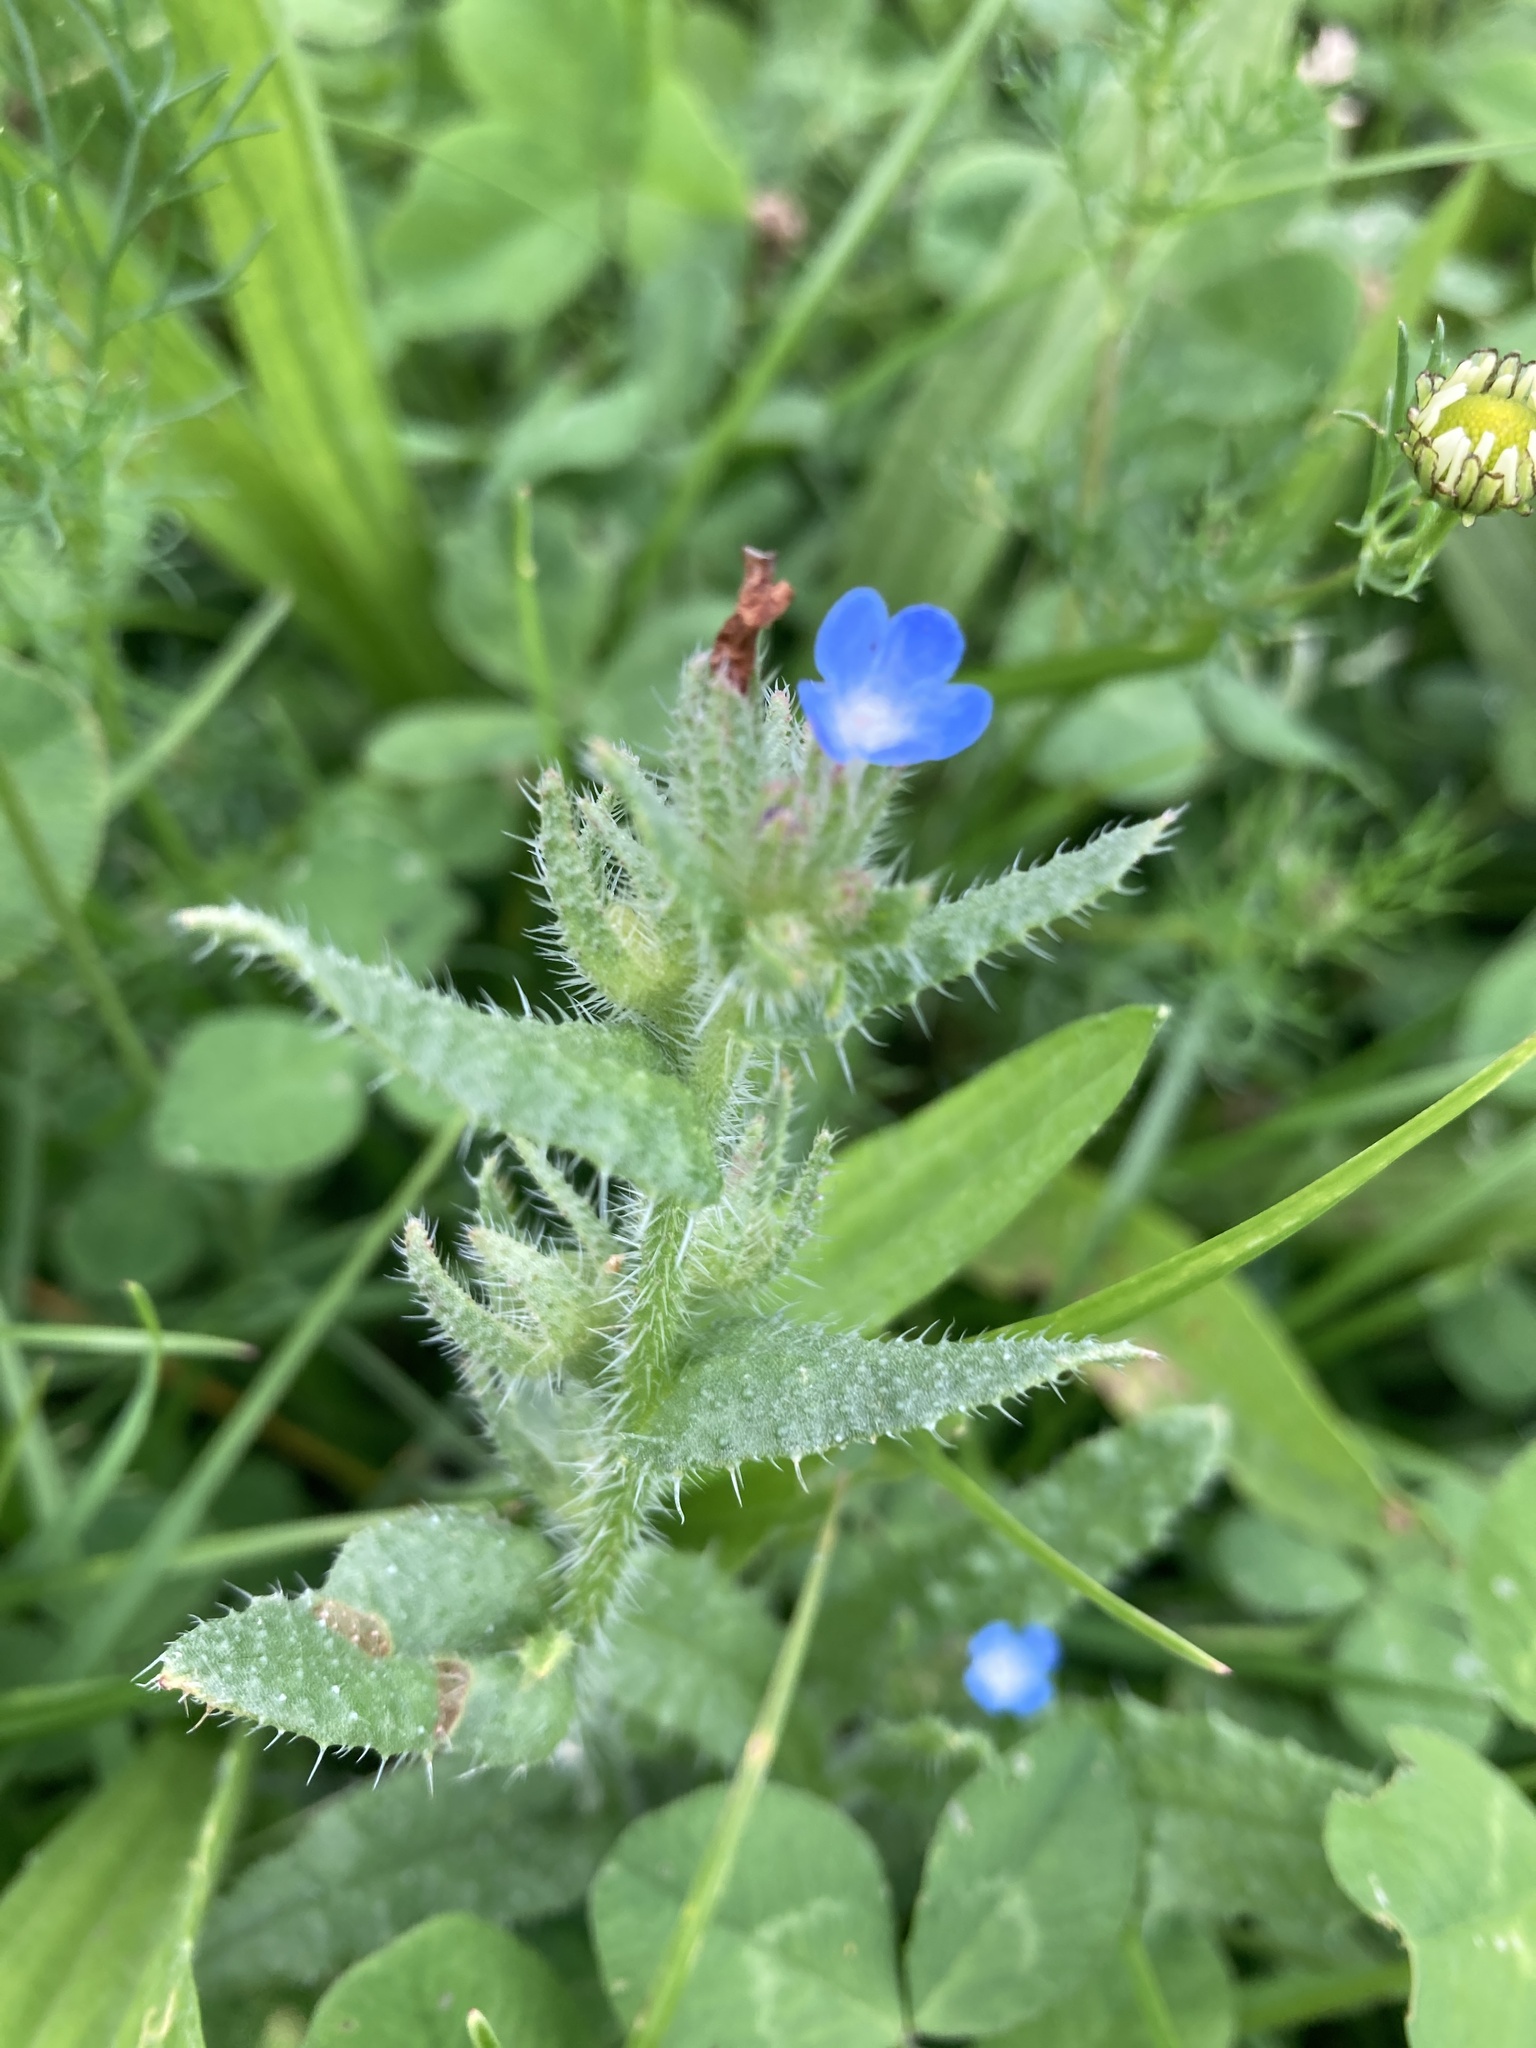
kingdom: Plantae
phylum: Tracheophyta
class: Magnoliopsida
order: Boraginales
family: Boraginaceae
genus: Lycopsis
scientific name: Lycopsis arvensis
